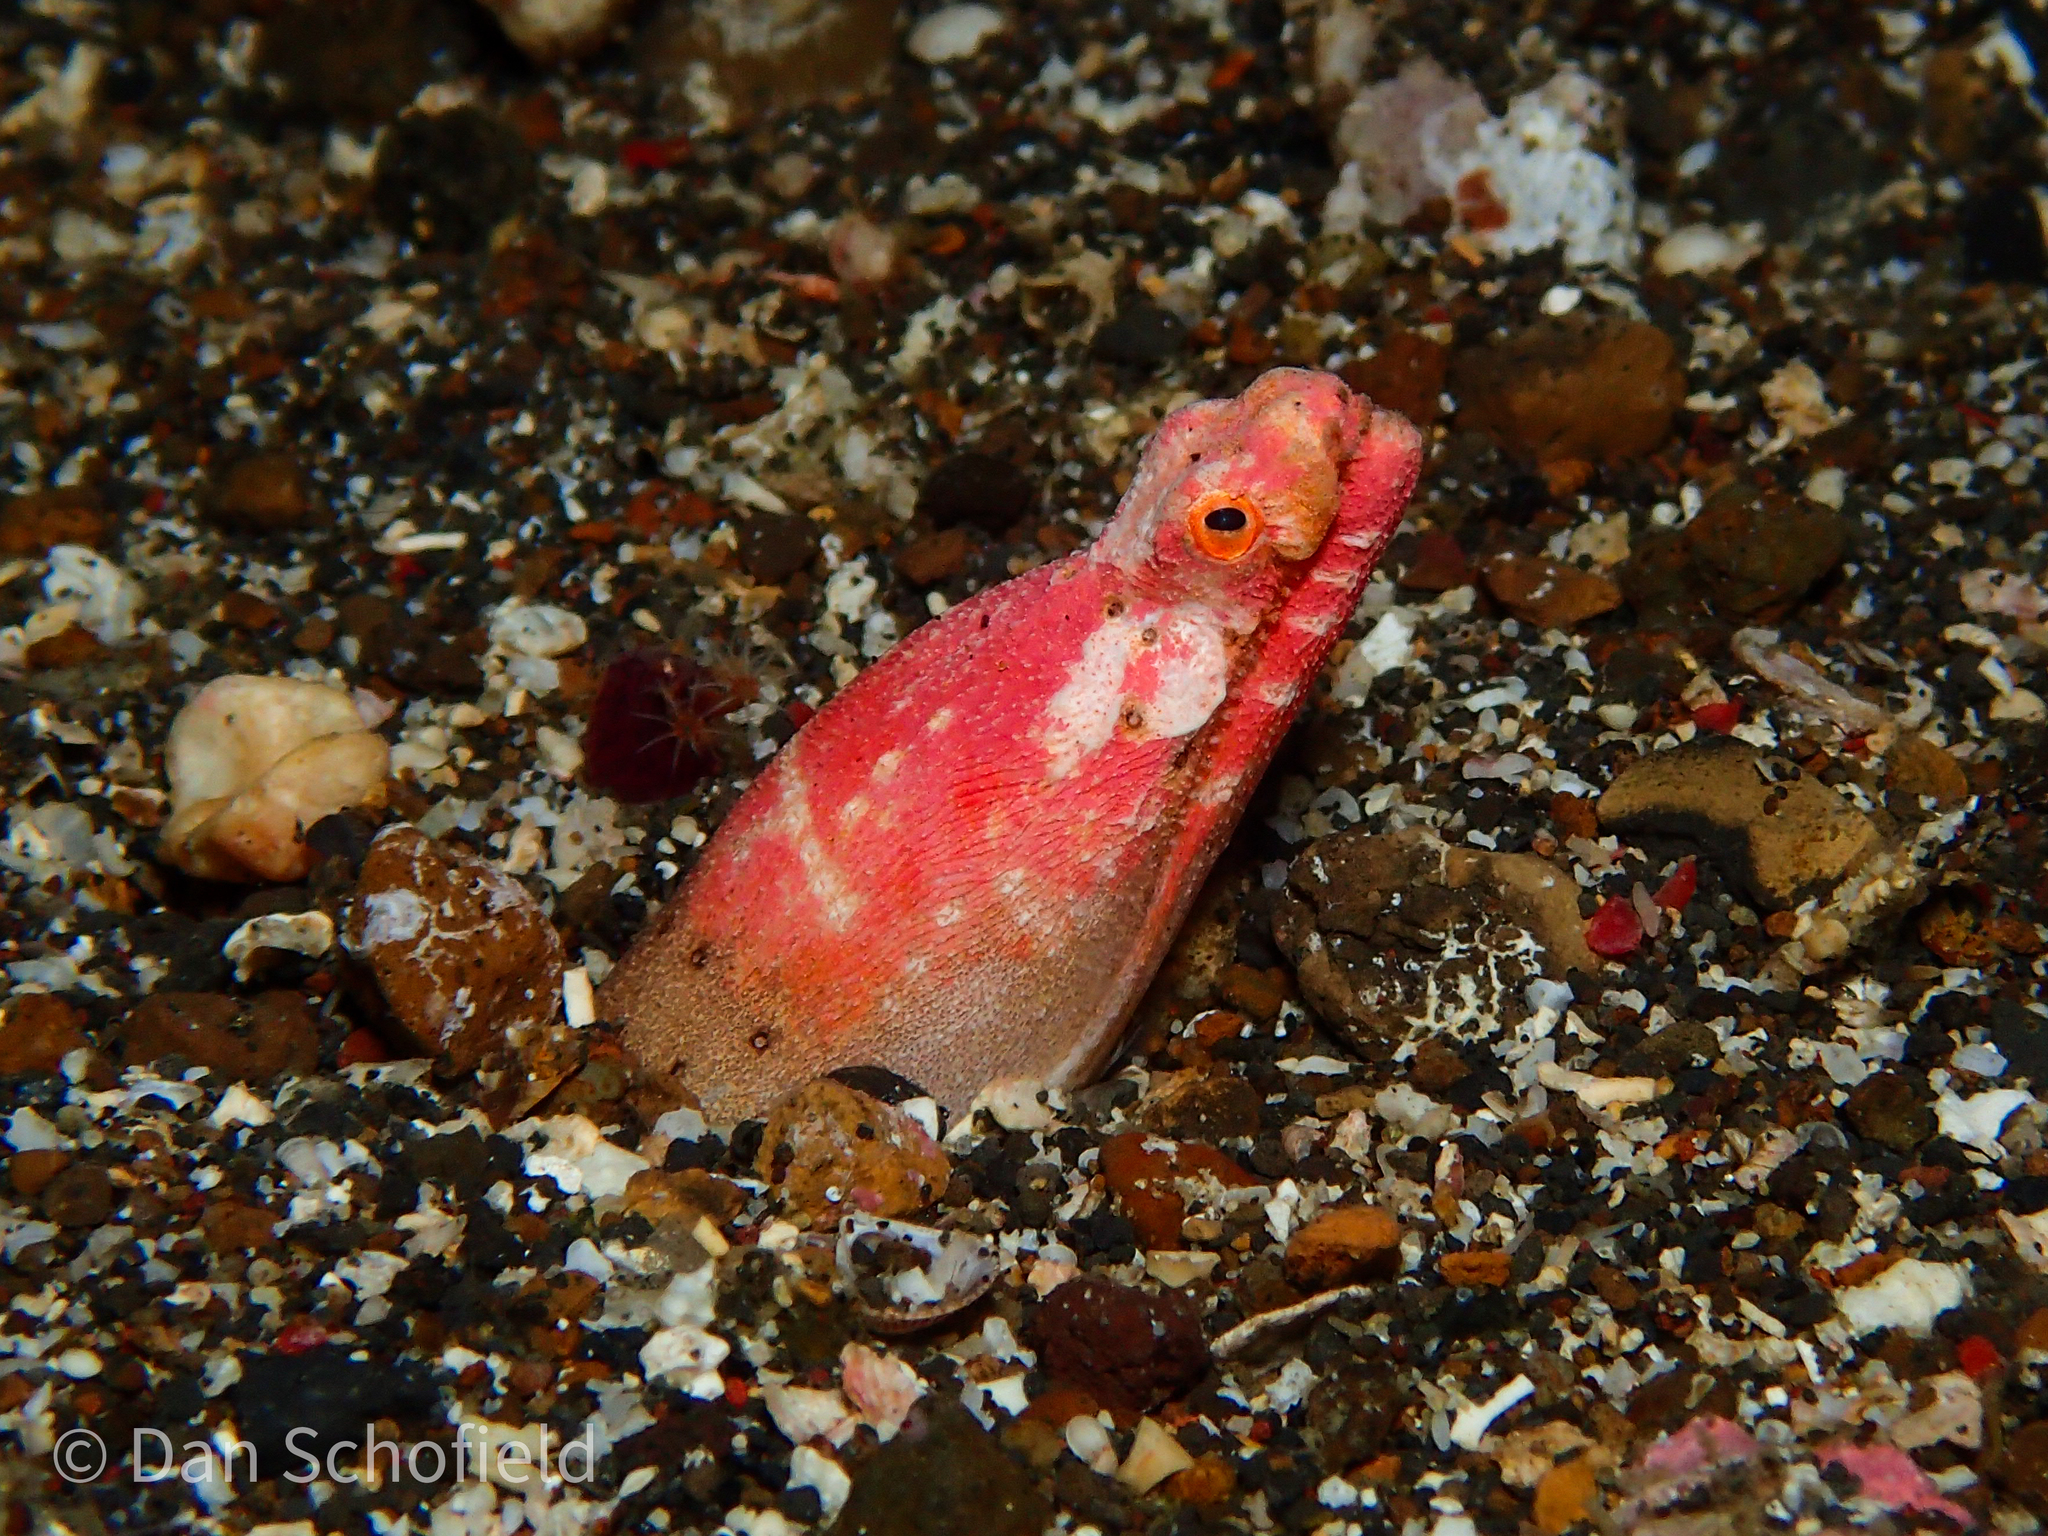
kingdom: Animalia
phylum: Chordata
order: Anguilliformes
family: Ophichthidae
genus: Brachysomophis
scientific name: Brachysomophis henshawi
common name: Crocodile snake eel
